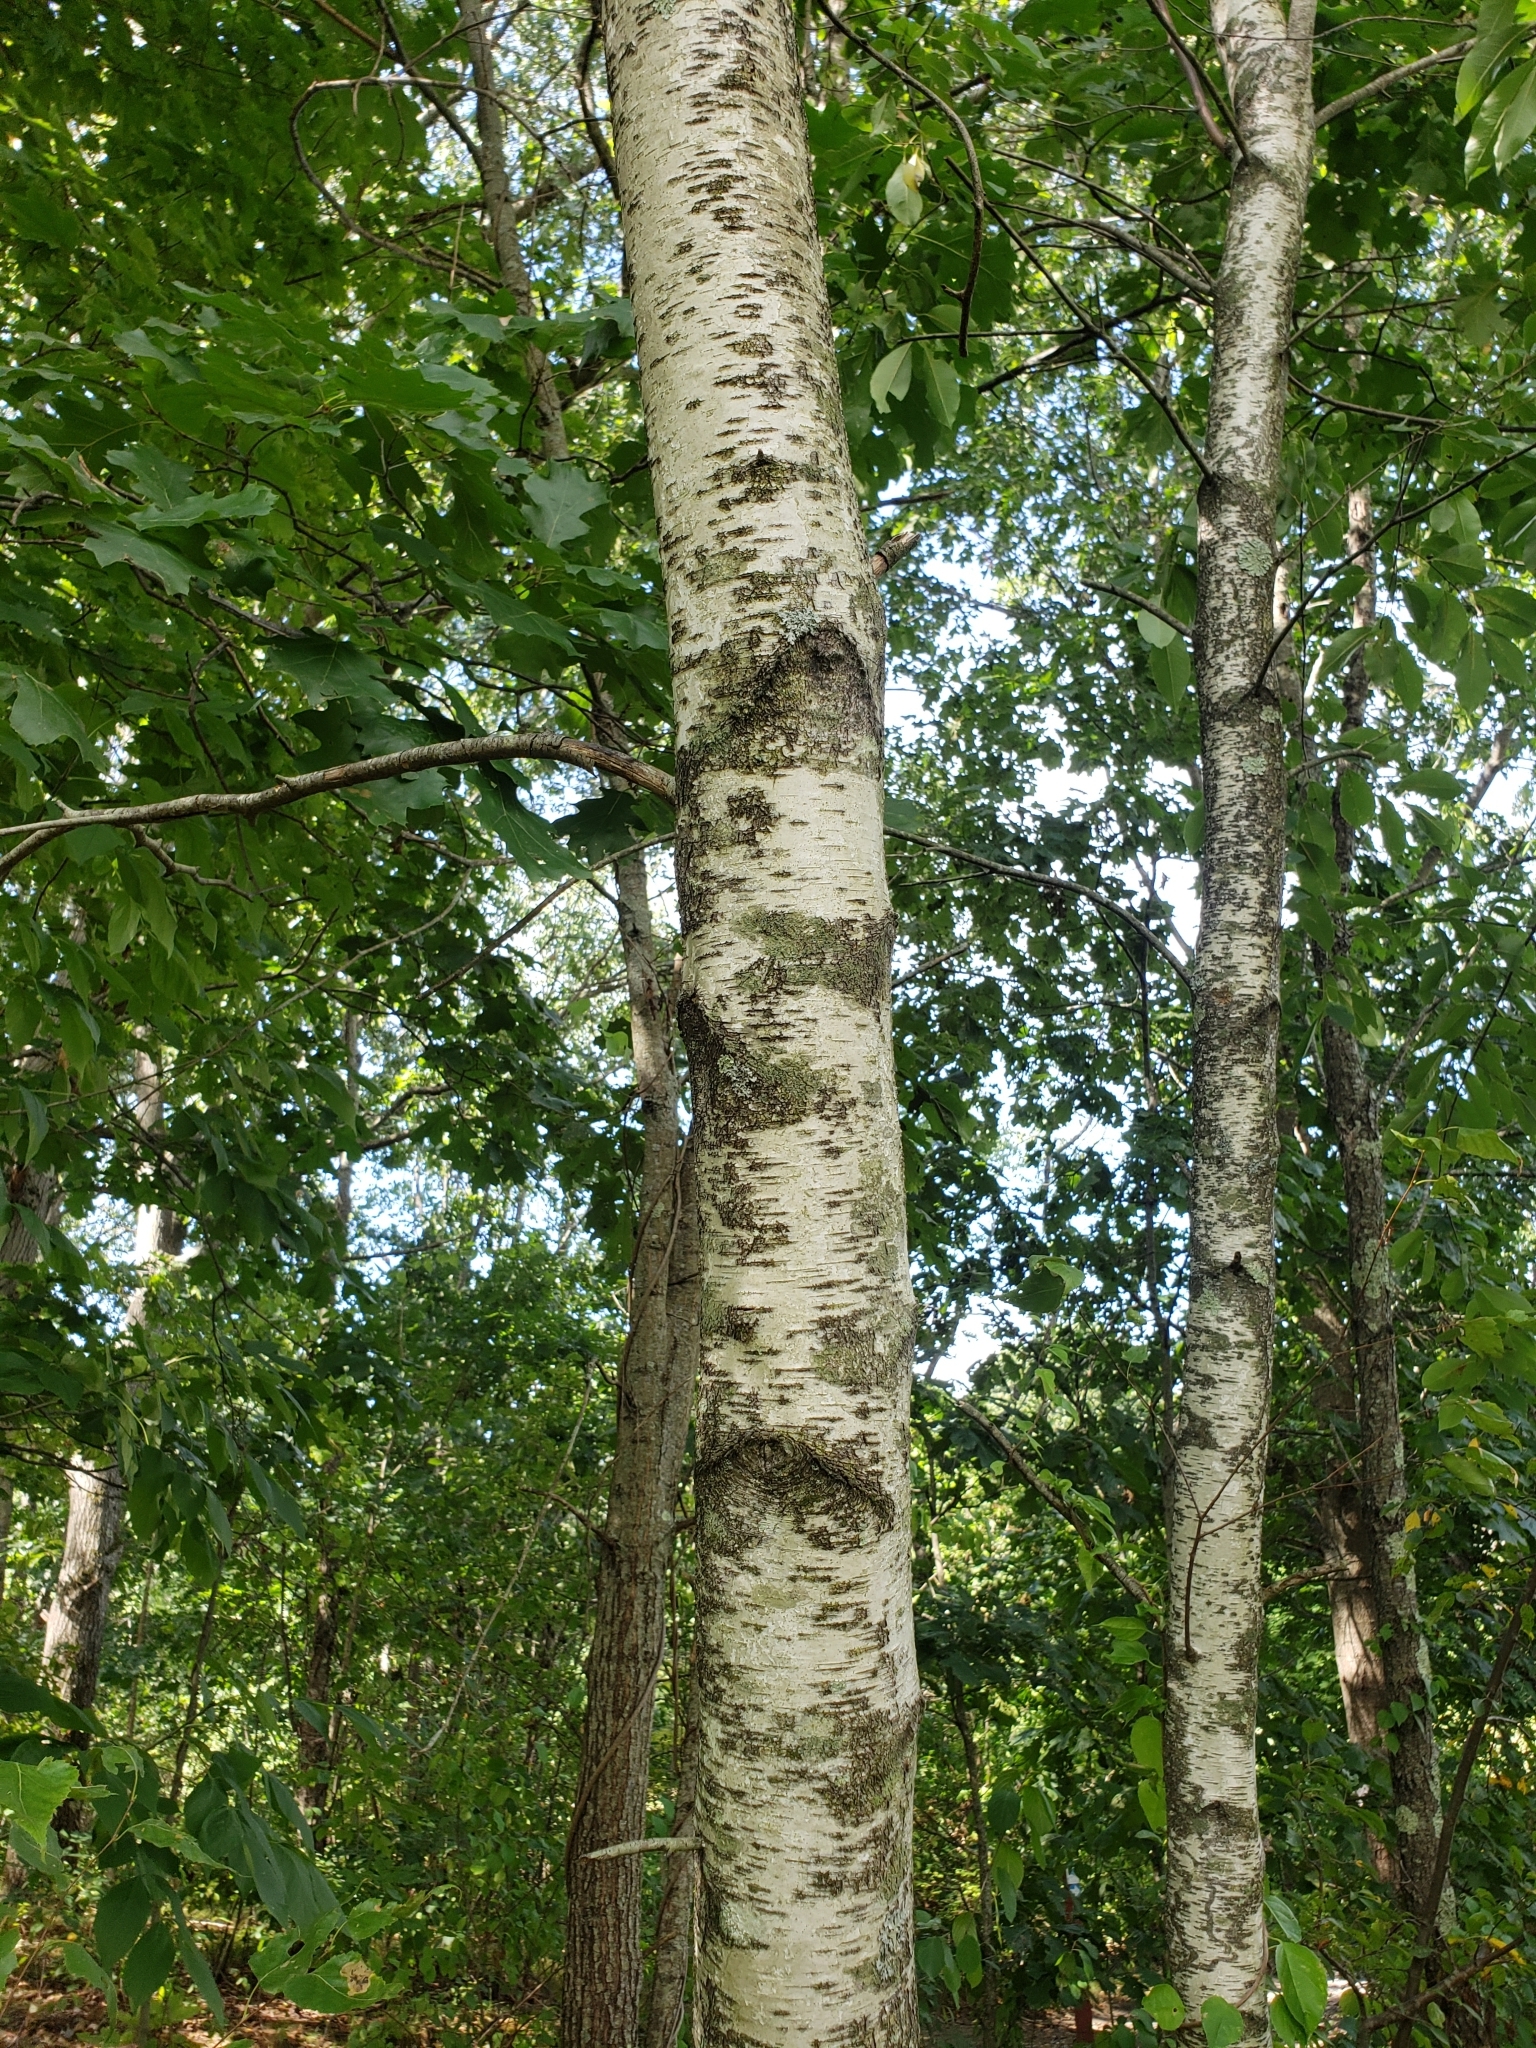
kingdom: Plantae
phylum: Tracheophyta
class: Magnoliopsida
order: Fagales
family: Betulaceae
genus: Betula
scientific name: Betula populifolia
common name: Fire birch
